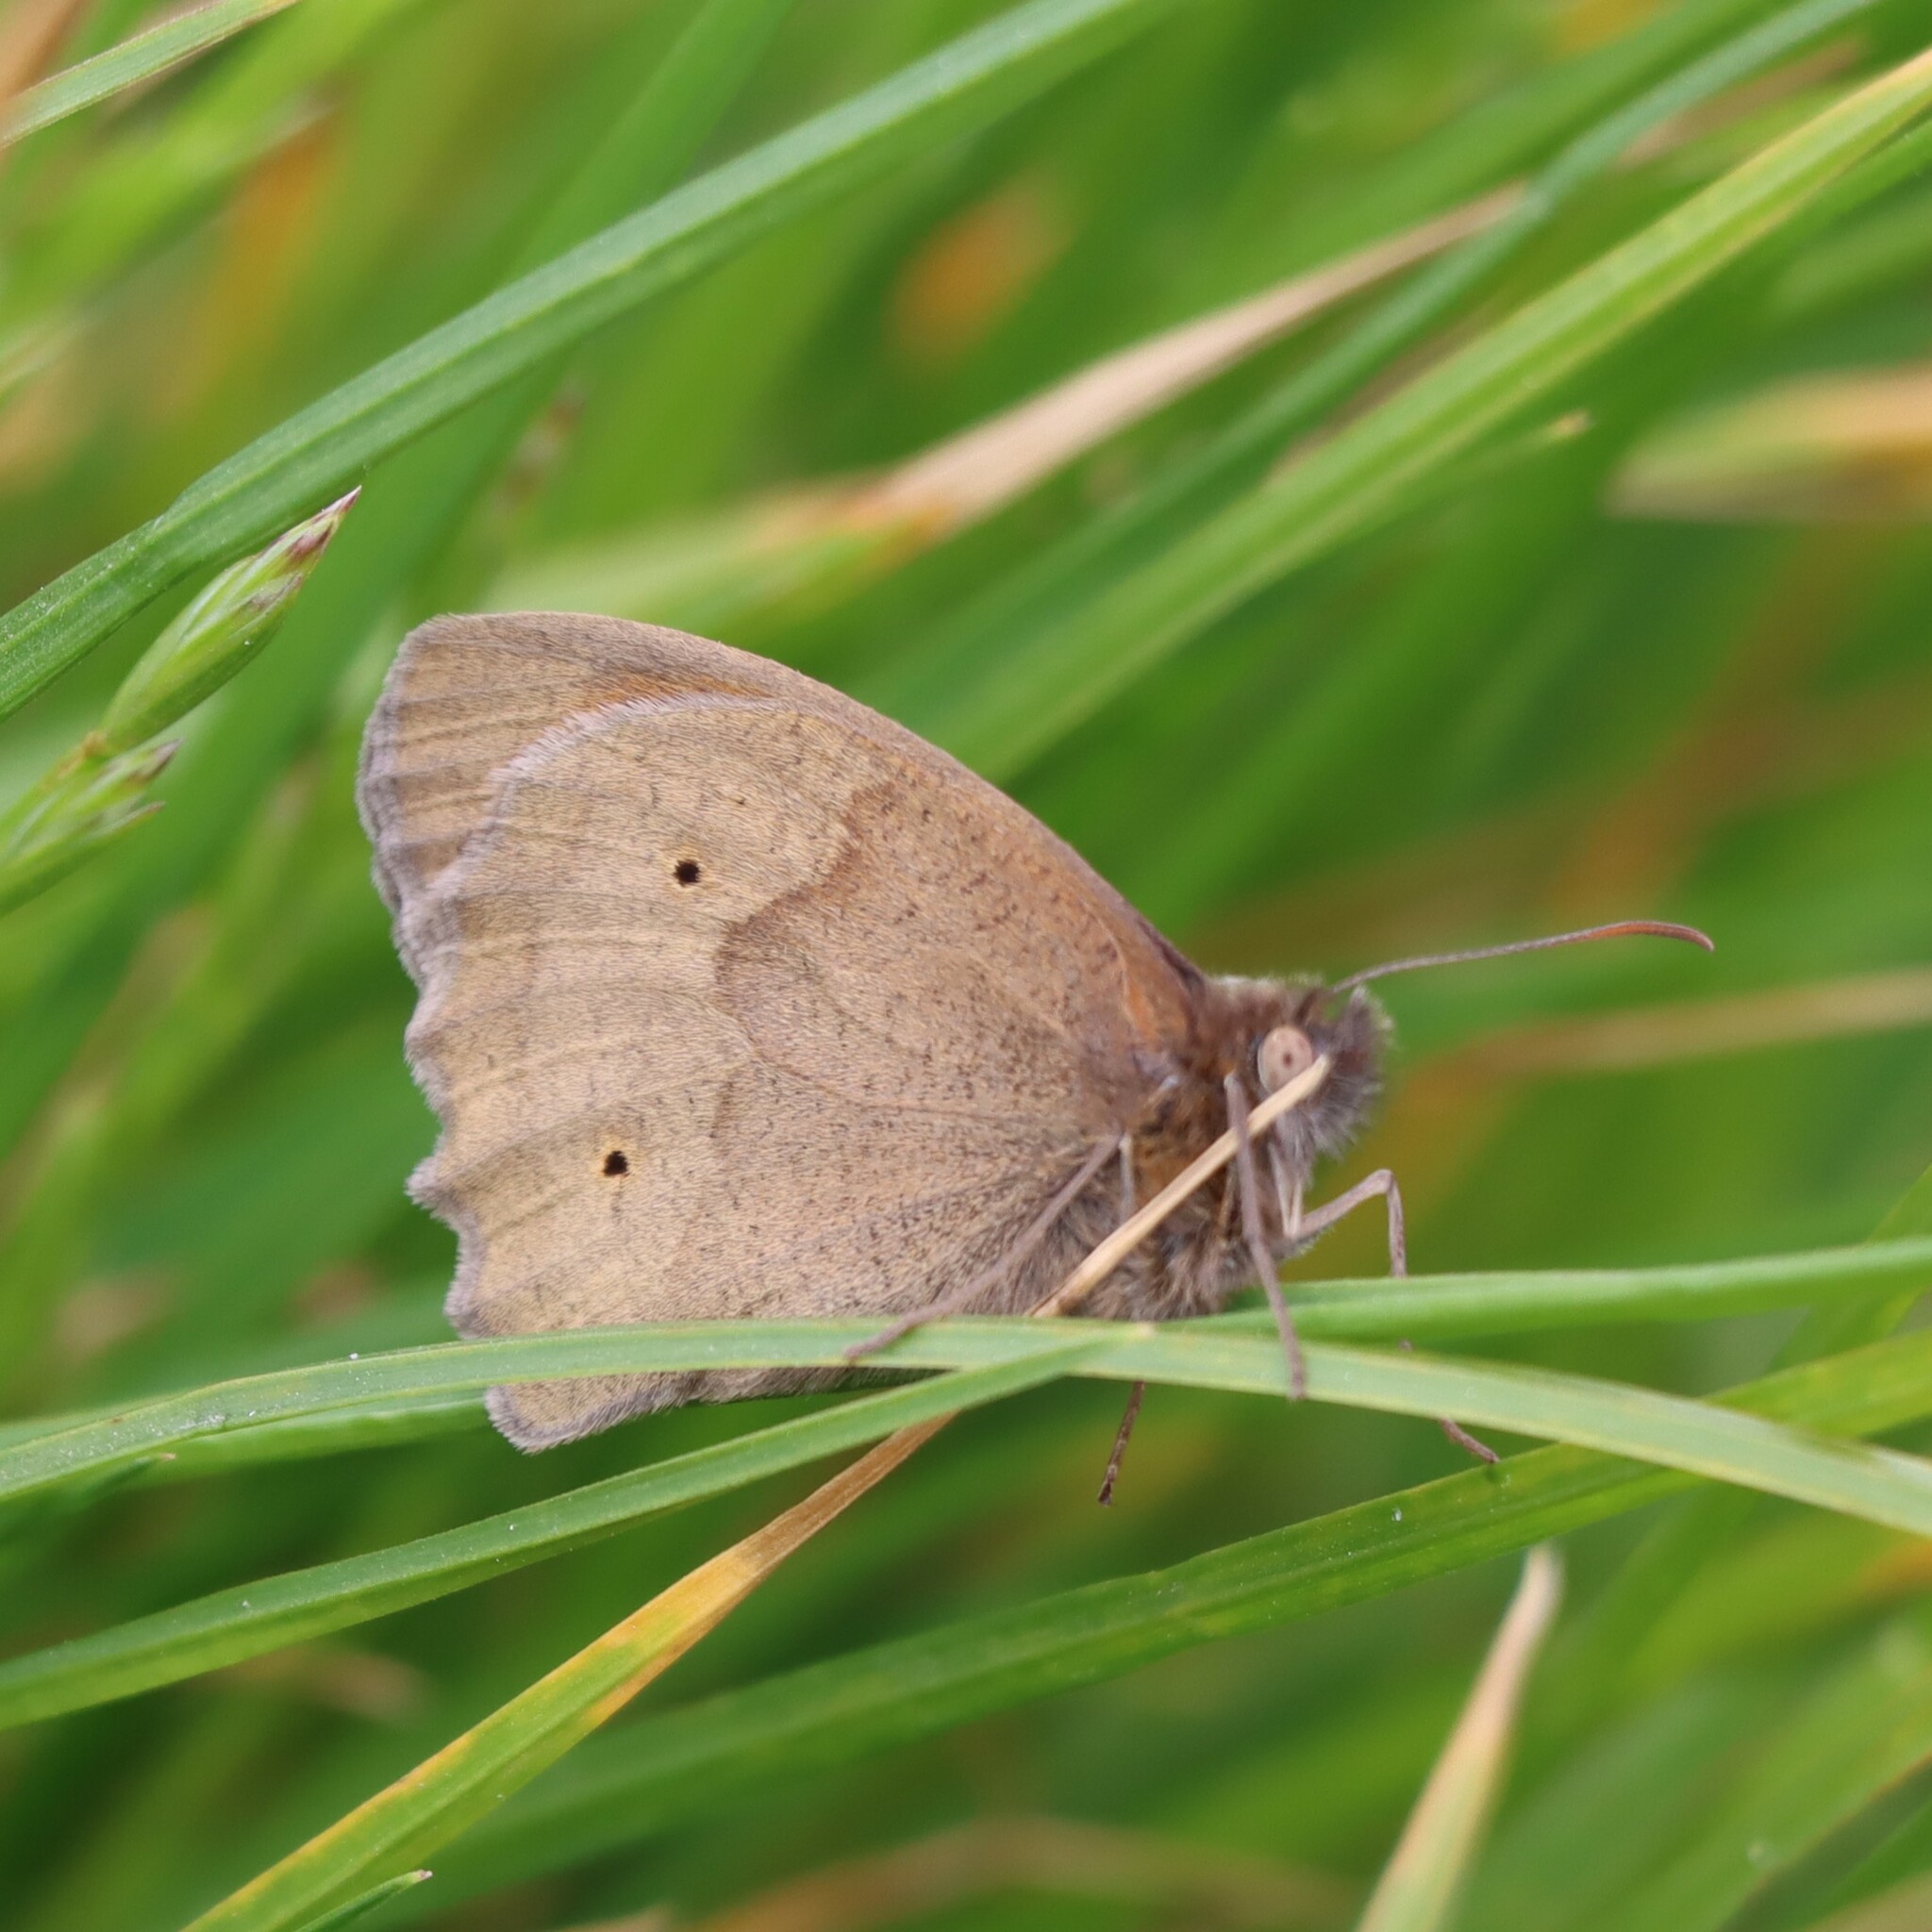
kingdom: Animalia
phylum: Arthropoda
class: Insecta
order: Lepidoptera
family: Nymphalidae
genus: Maniola
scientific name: Maniola jurtina
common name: Meadow brown
